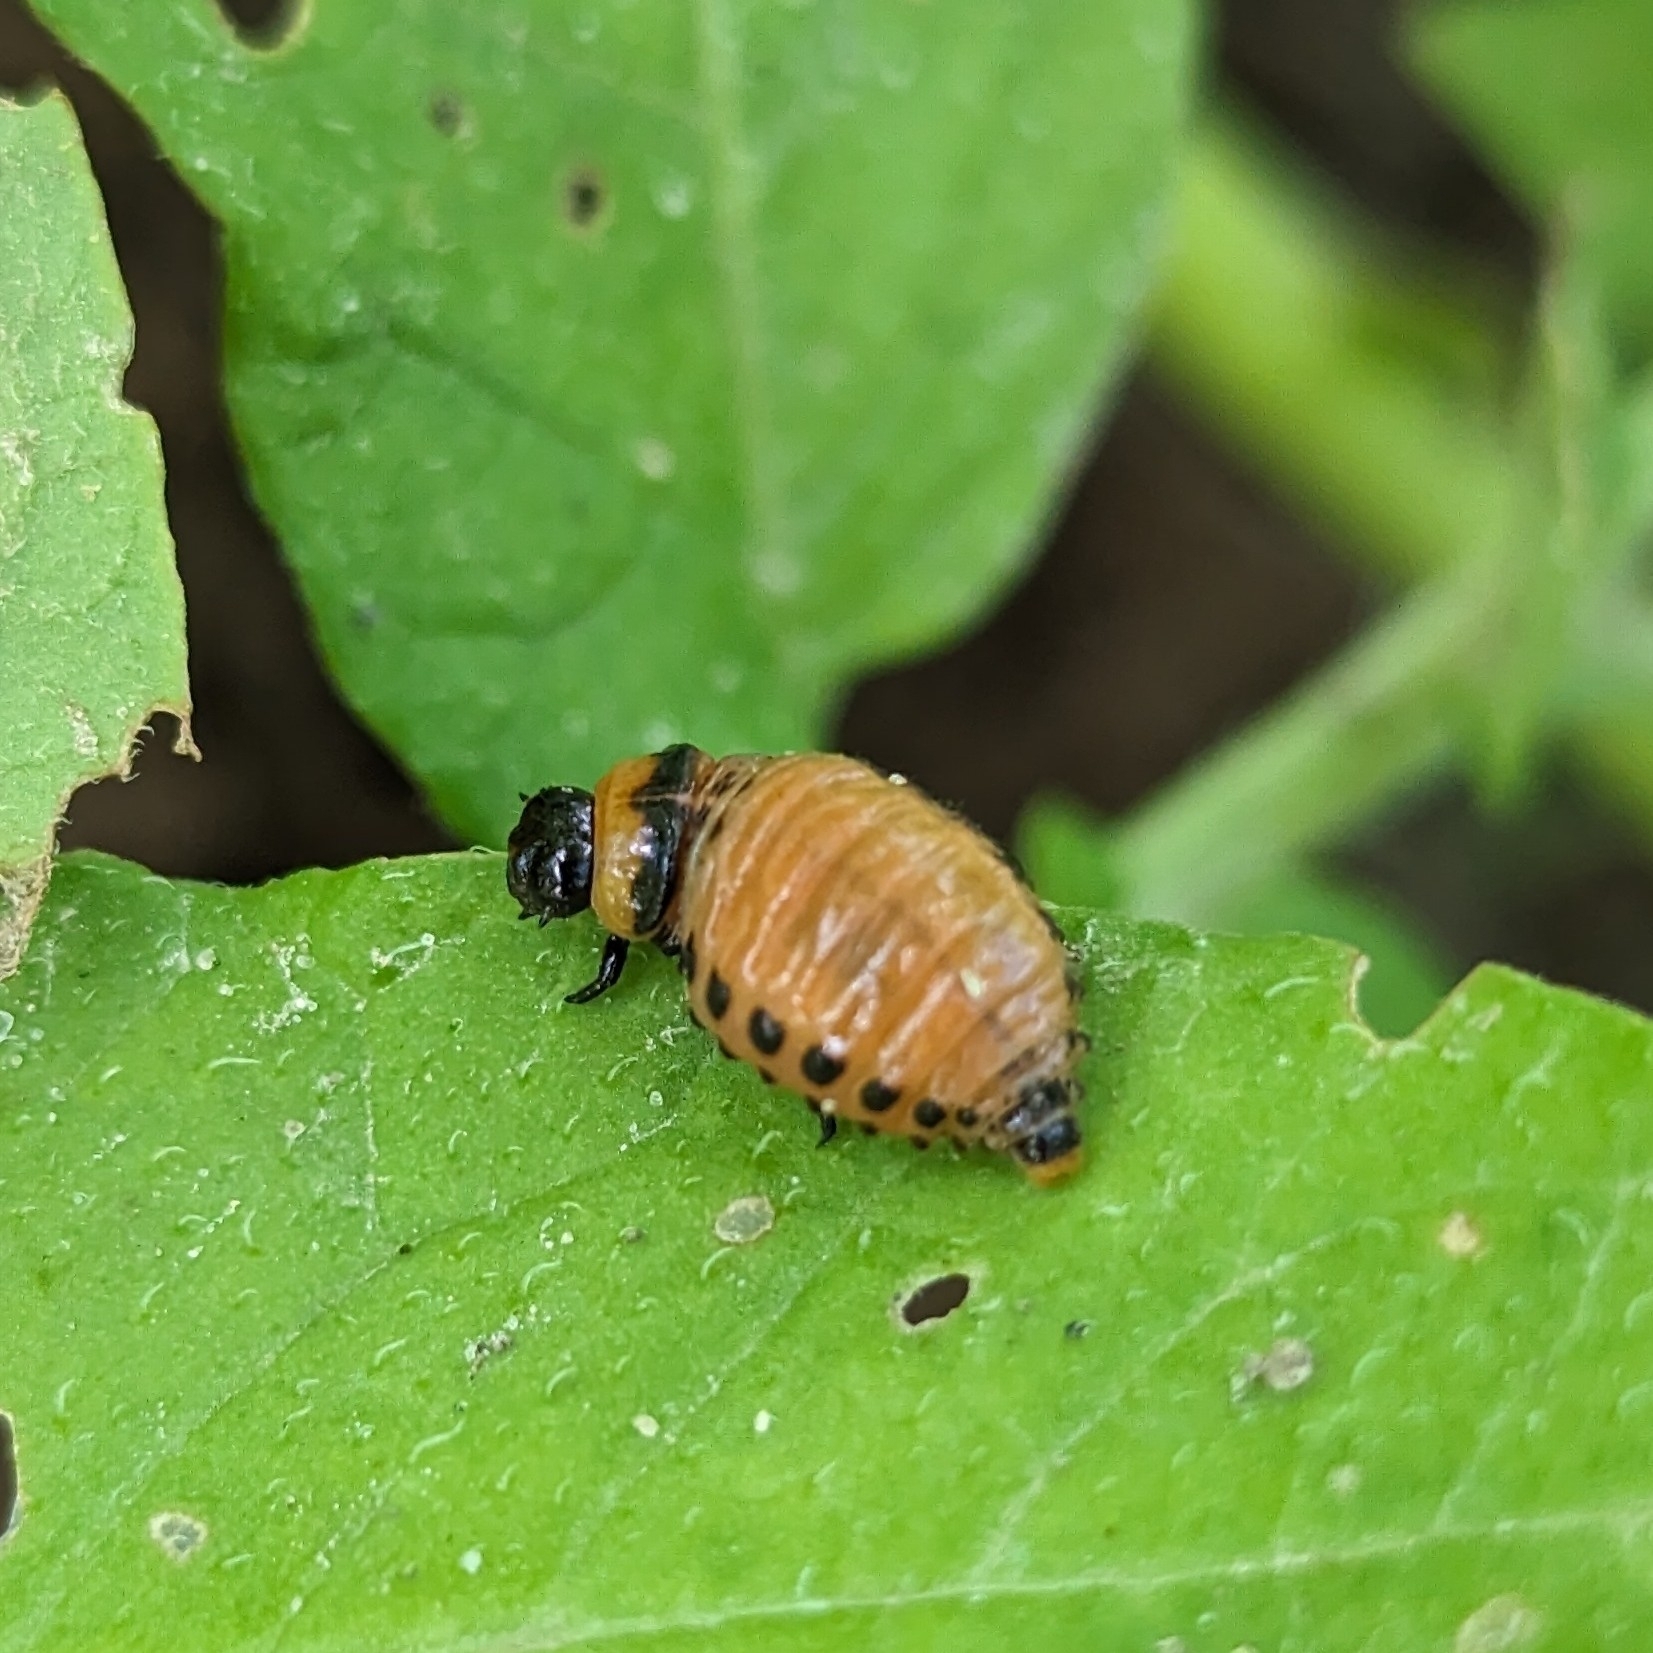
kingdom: Animalia
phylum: Arthropoda
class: Insecta
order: Coleoptera
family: Chrysomelidae
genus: Leptinotarsa
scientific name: Leptinotarsa decemlineata
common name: Colorado potato beetle
